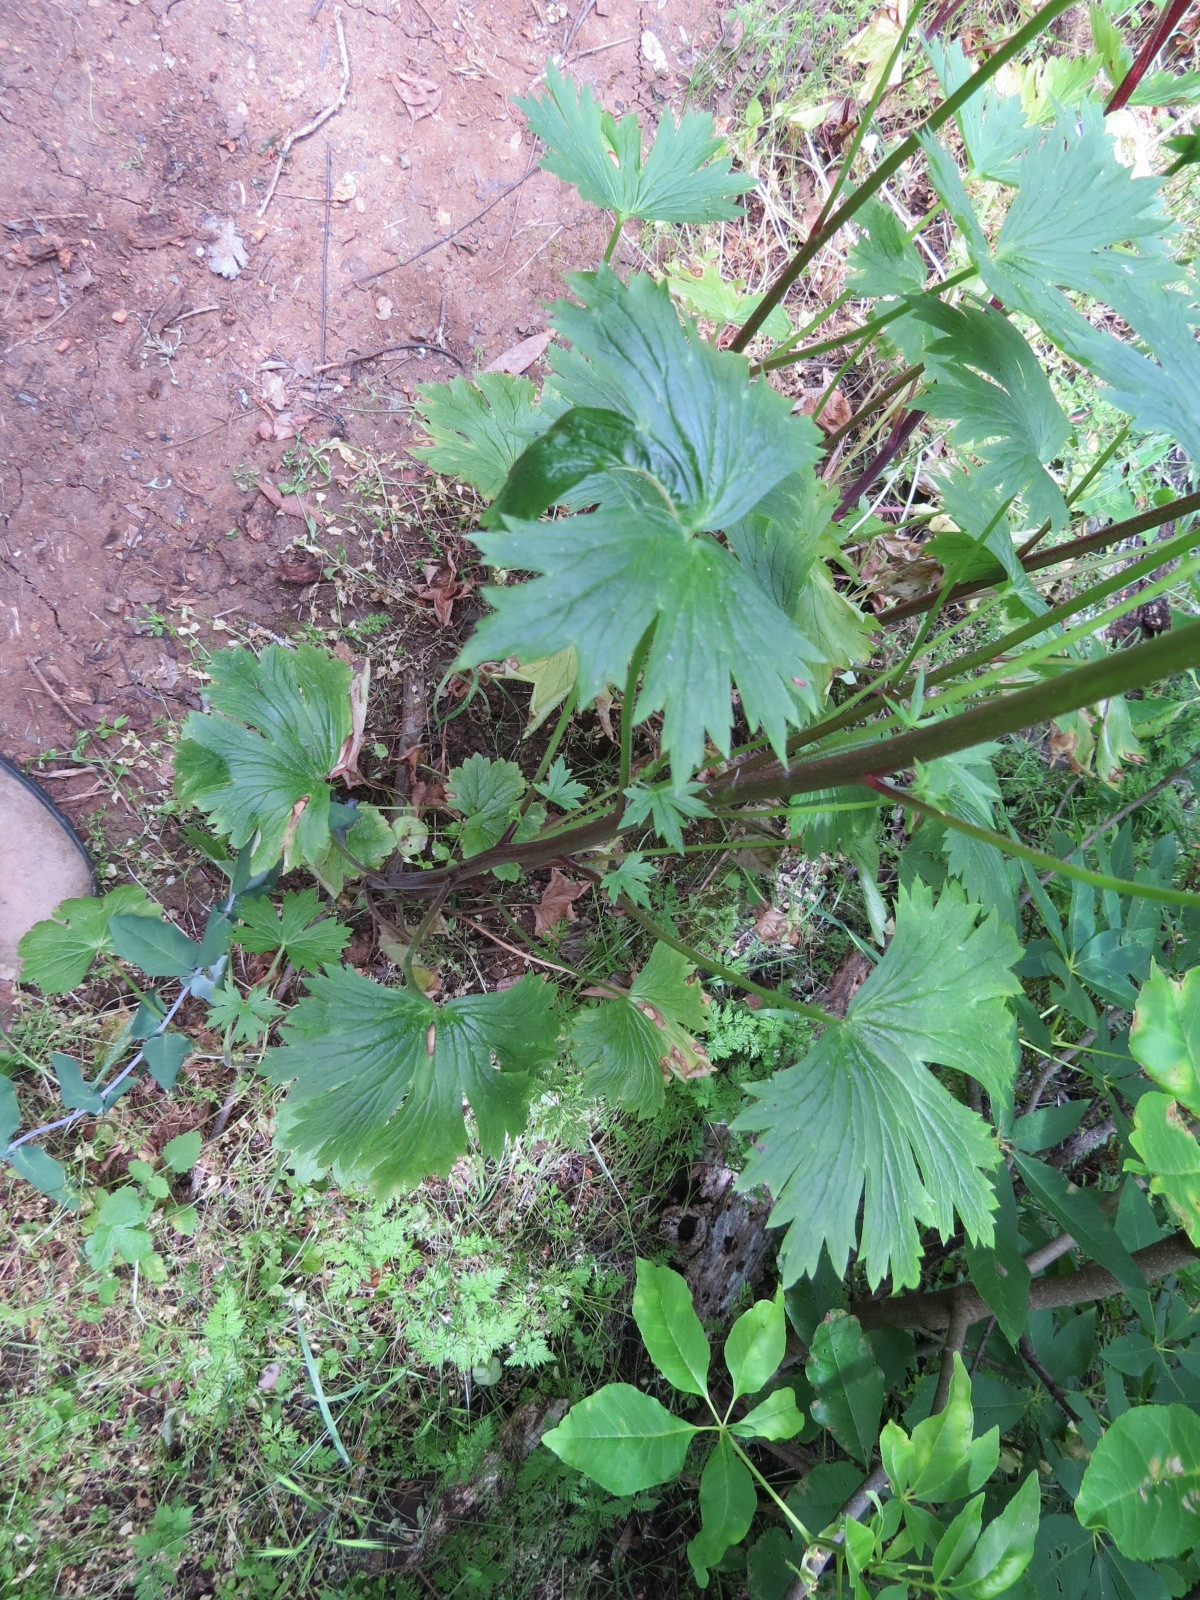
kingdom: Plantae
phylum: Tracheophyta
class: Magnoliopsida
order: Ranunculales
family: Ranunculaceae
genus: Delphinium
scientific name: Delphinium californicum
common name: California larkspur
